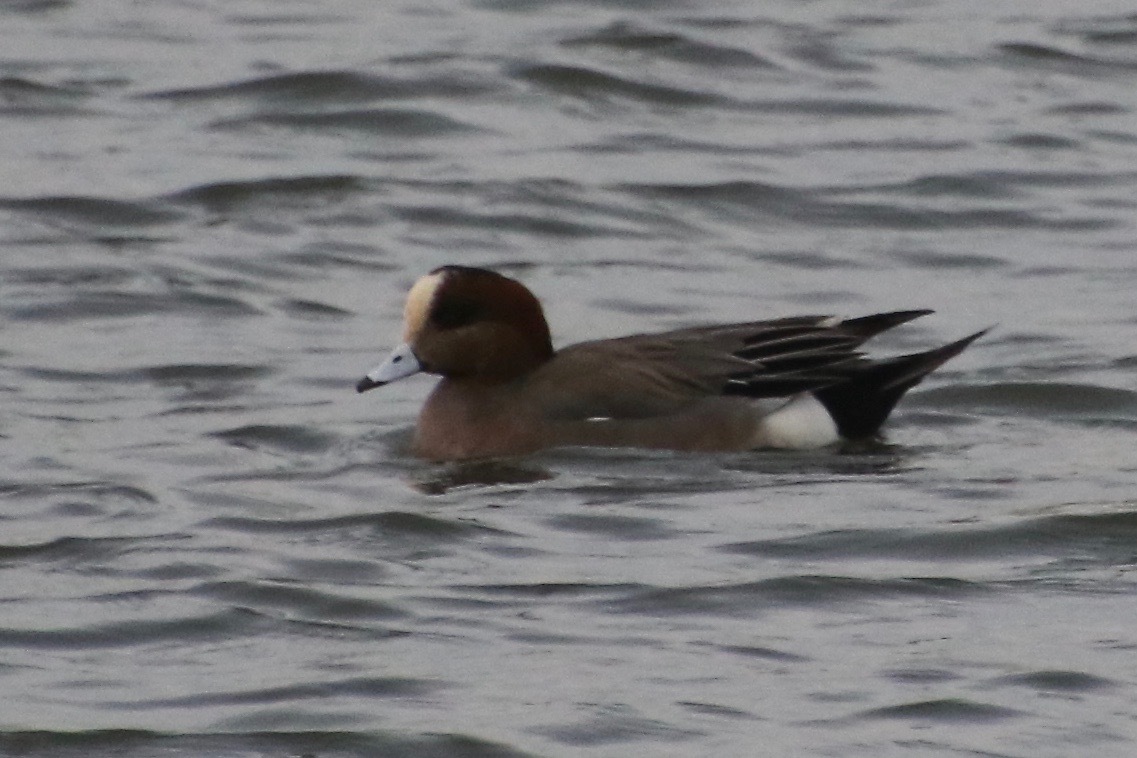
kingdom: Animalia
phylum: Chordata
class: Aves
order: Anseriformes
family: Anatidae
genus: Mareca
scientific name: Mareca
